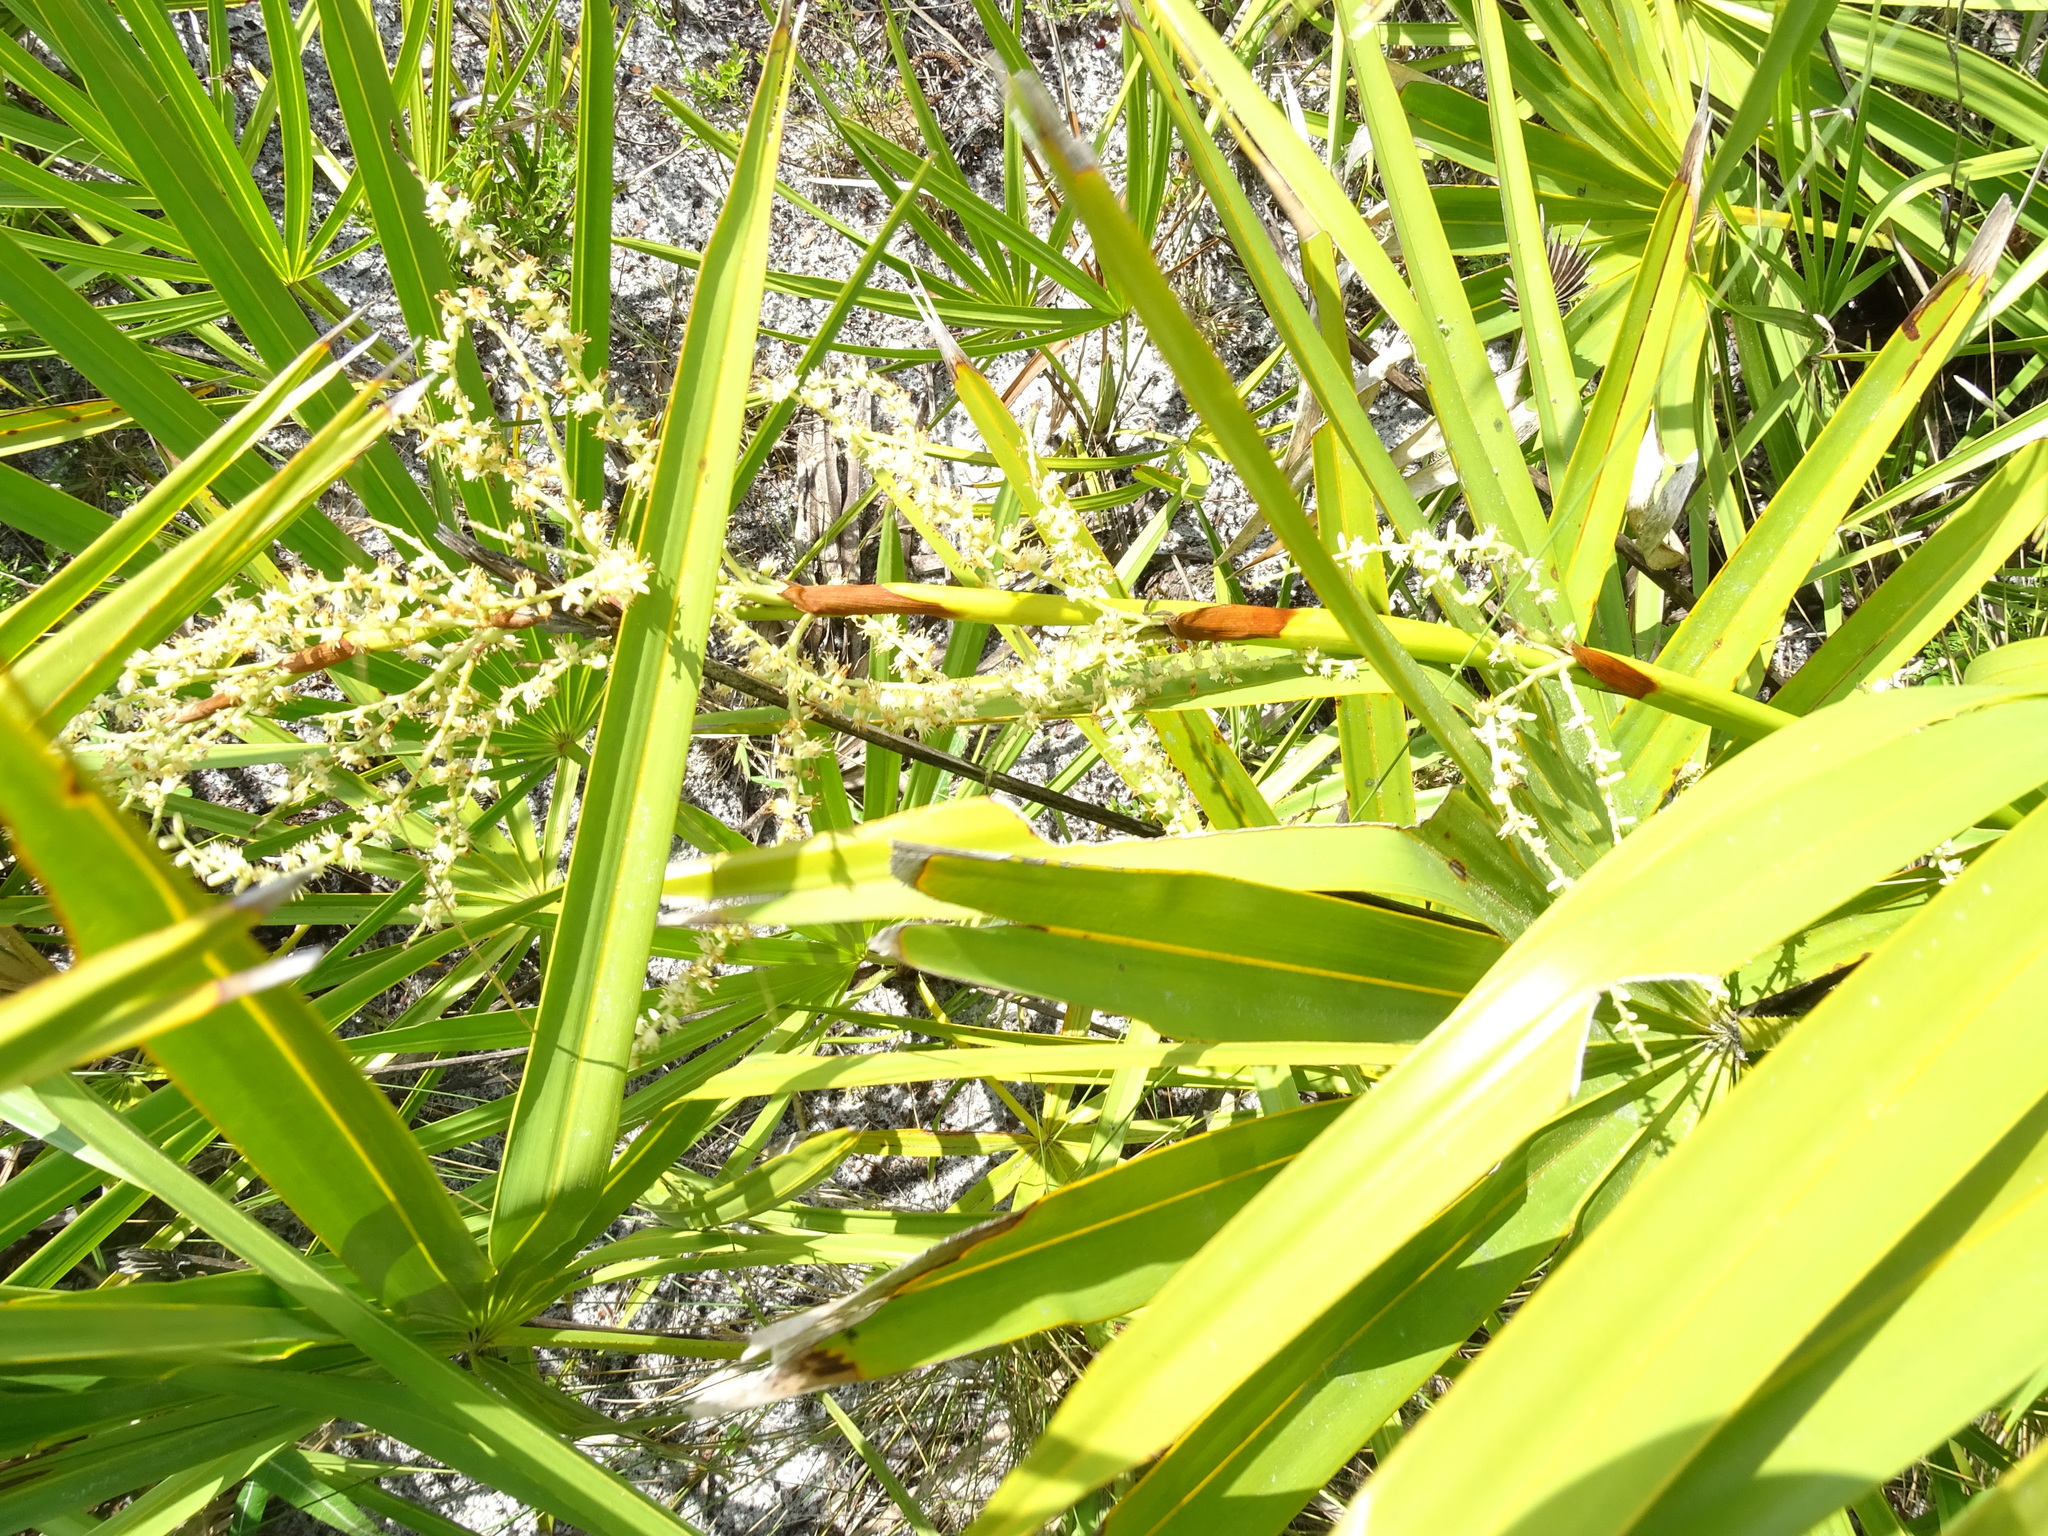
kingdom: Plantae
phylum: Tracheophyta
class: Liliopsida
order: Arecales
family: Arecaceae
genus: Serenoa
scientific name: Serenoa repens
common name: Saw-palmetto
